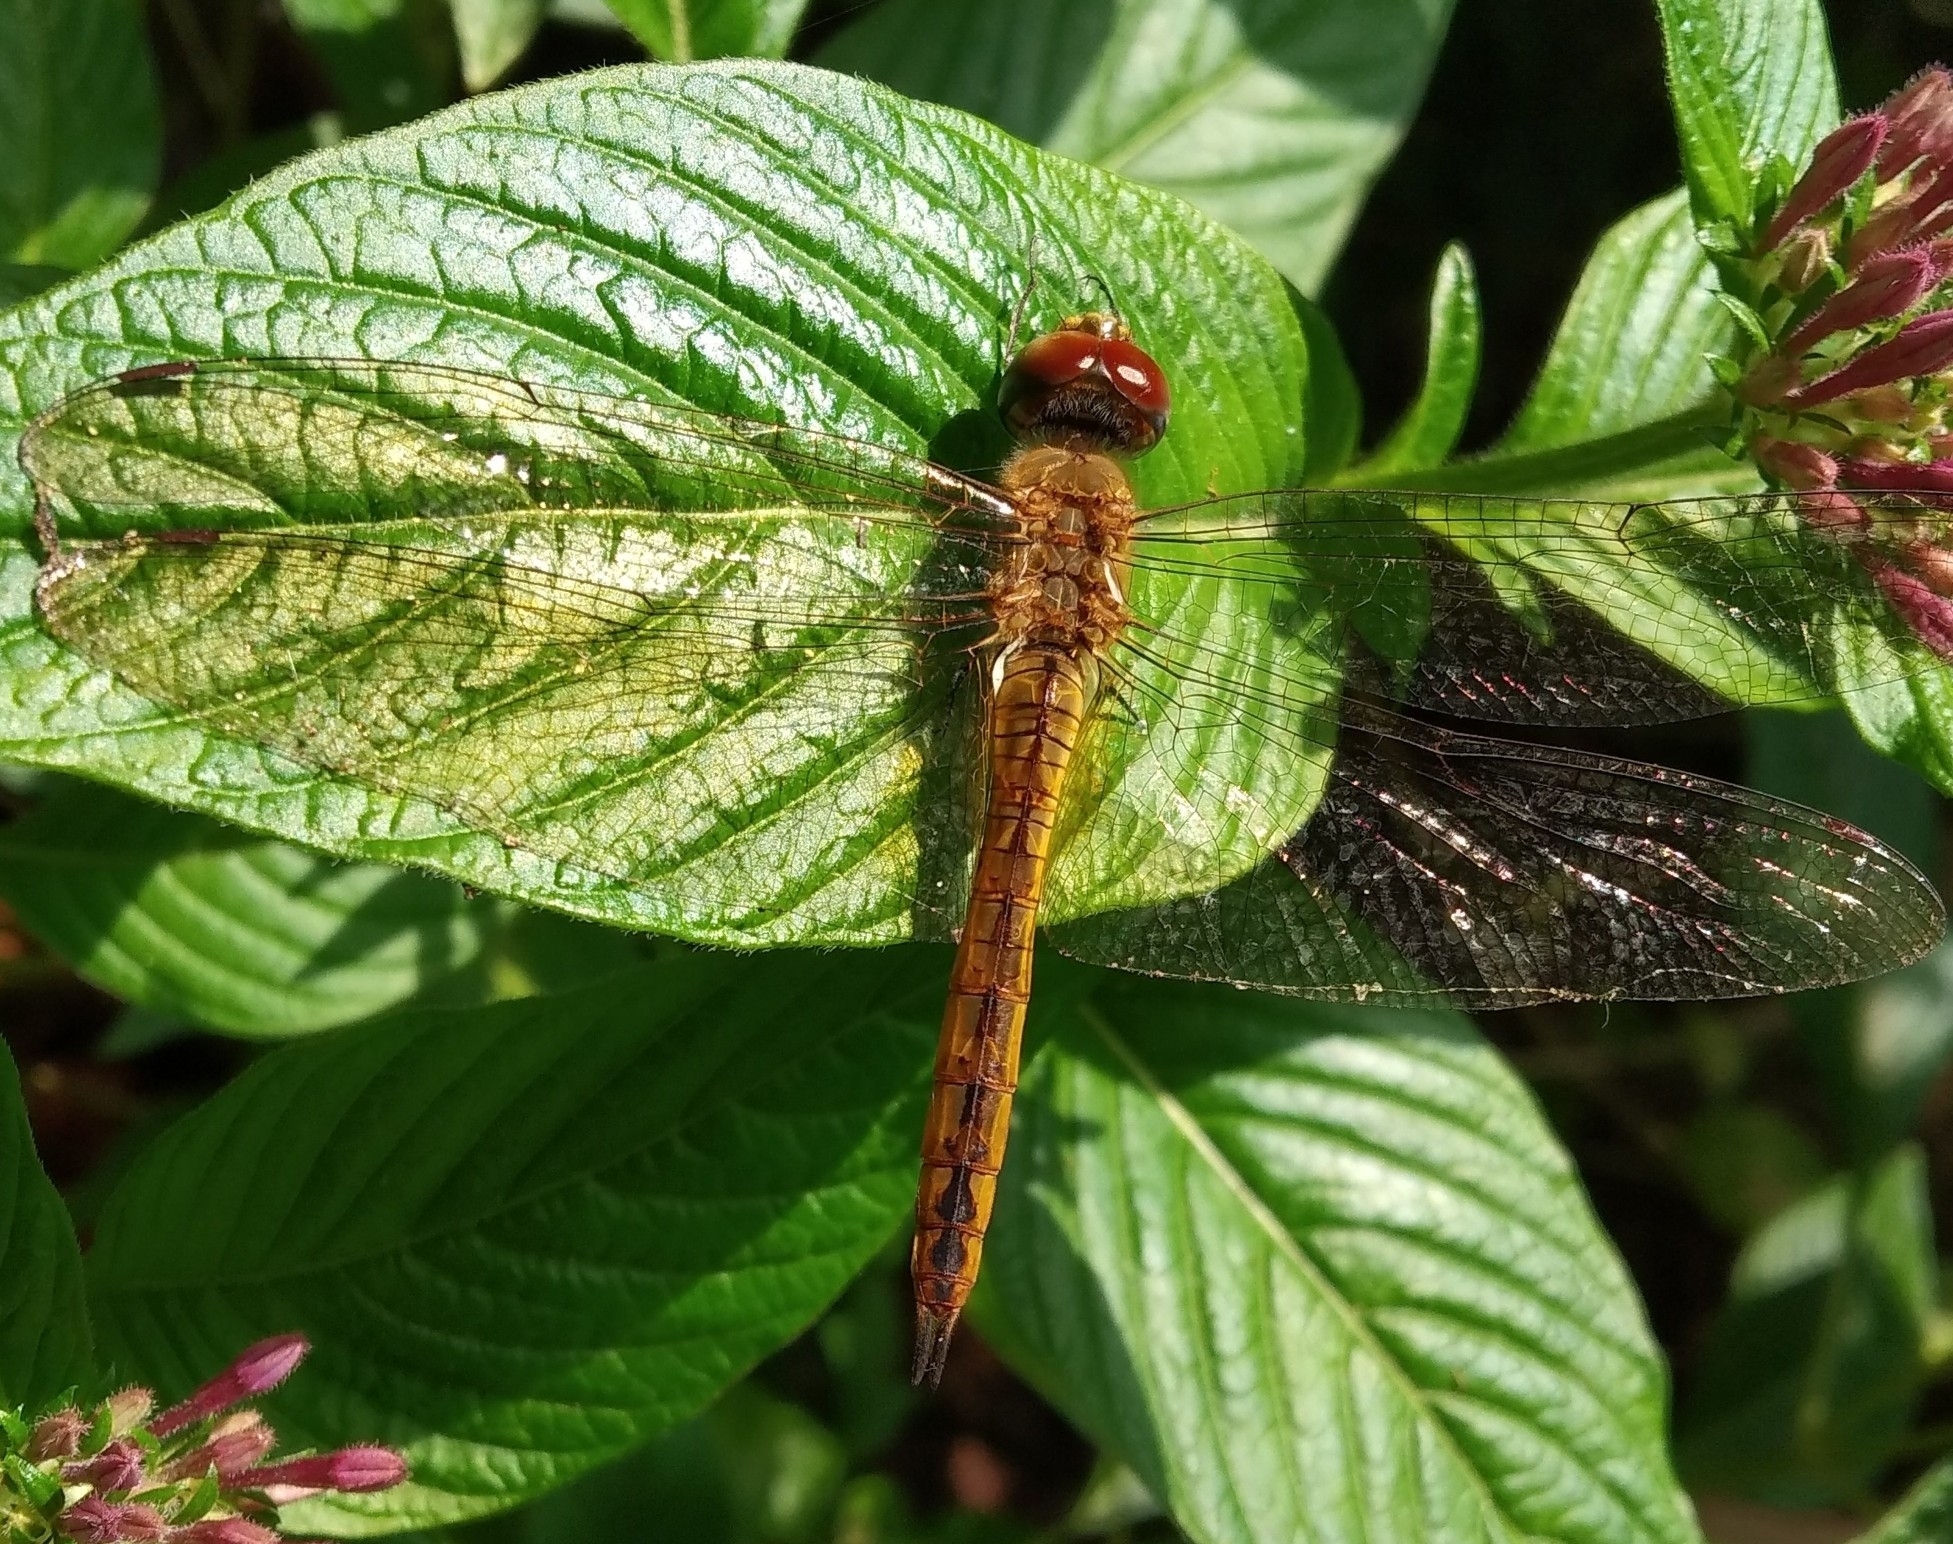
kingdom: Animalia
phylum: Arthropoda
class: Insecta
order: Odonata
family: Libellulidae
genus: Pantala
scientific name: Pantala flavescens
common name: Wandering glider
